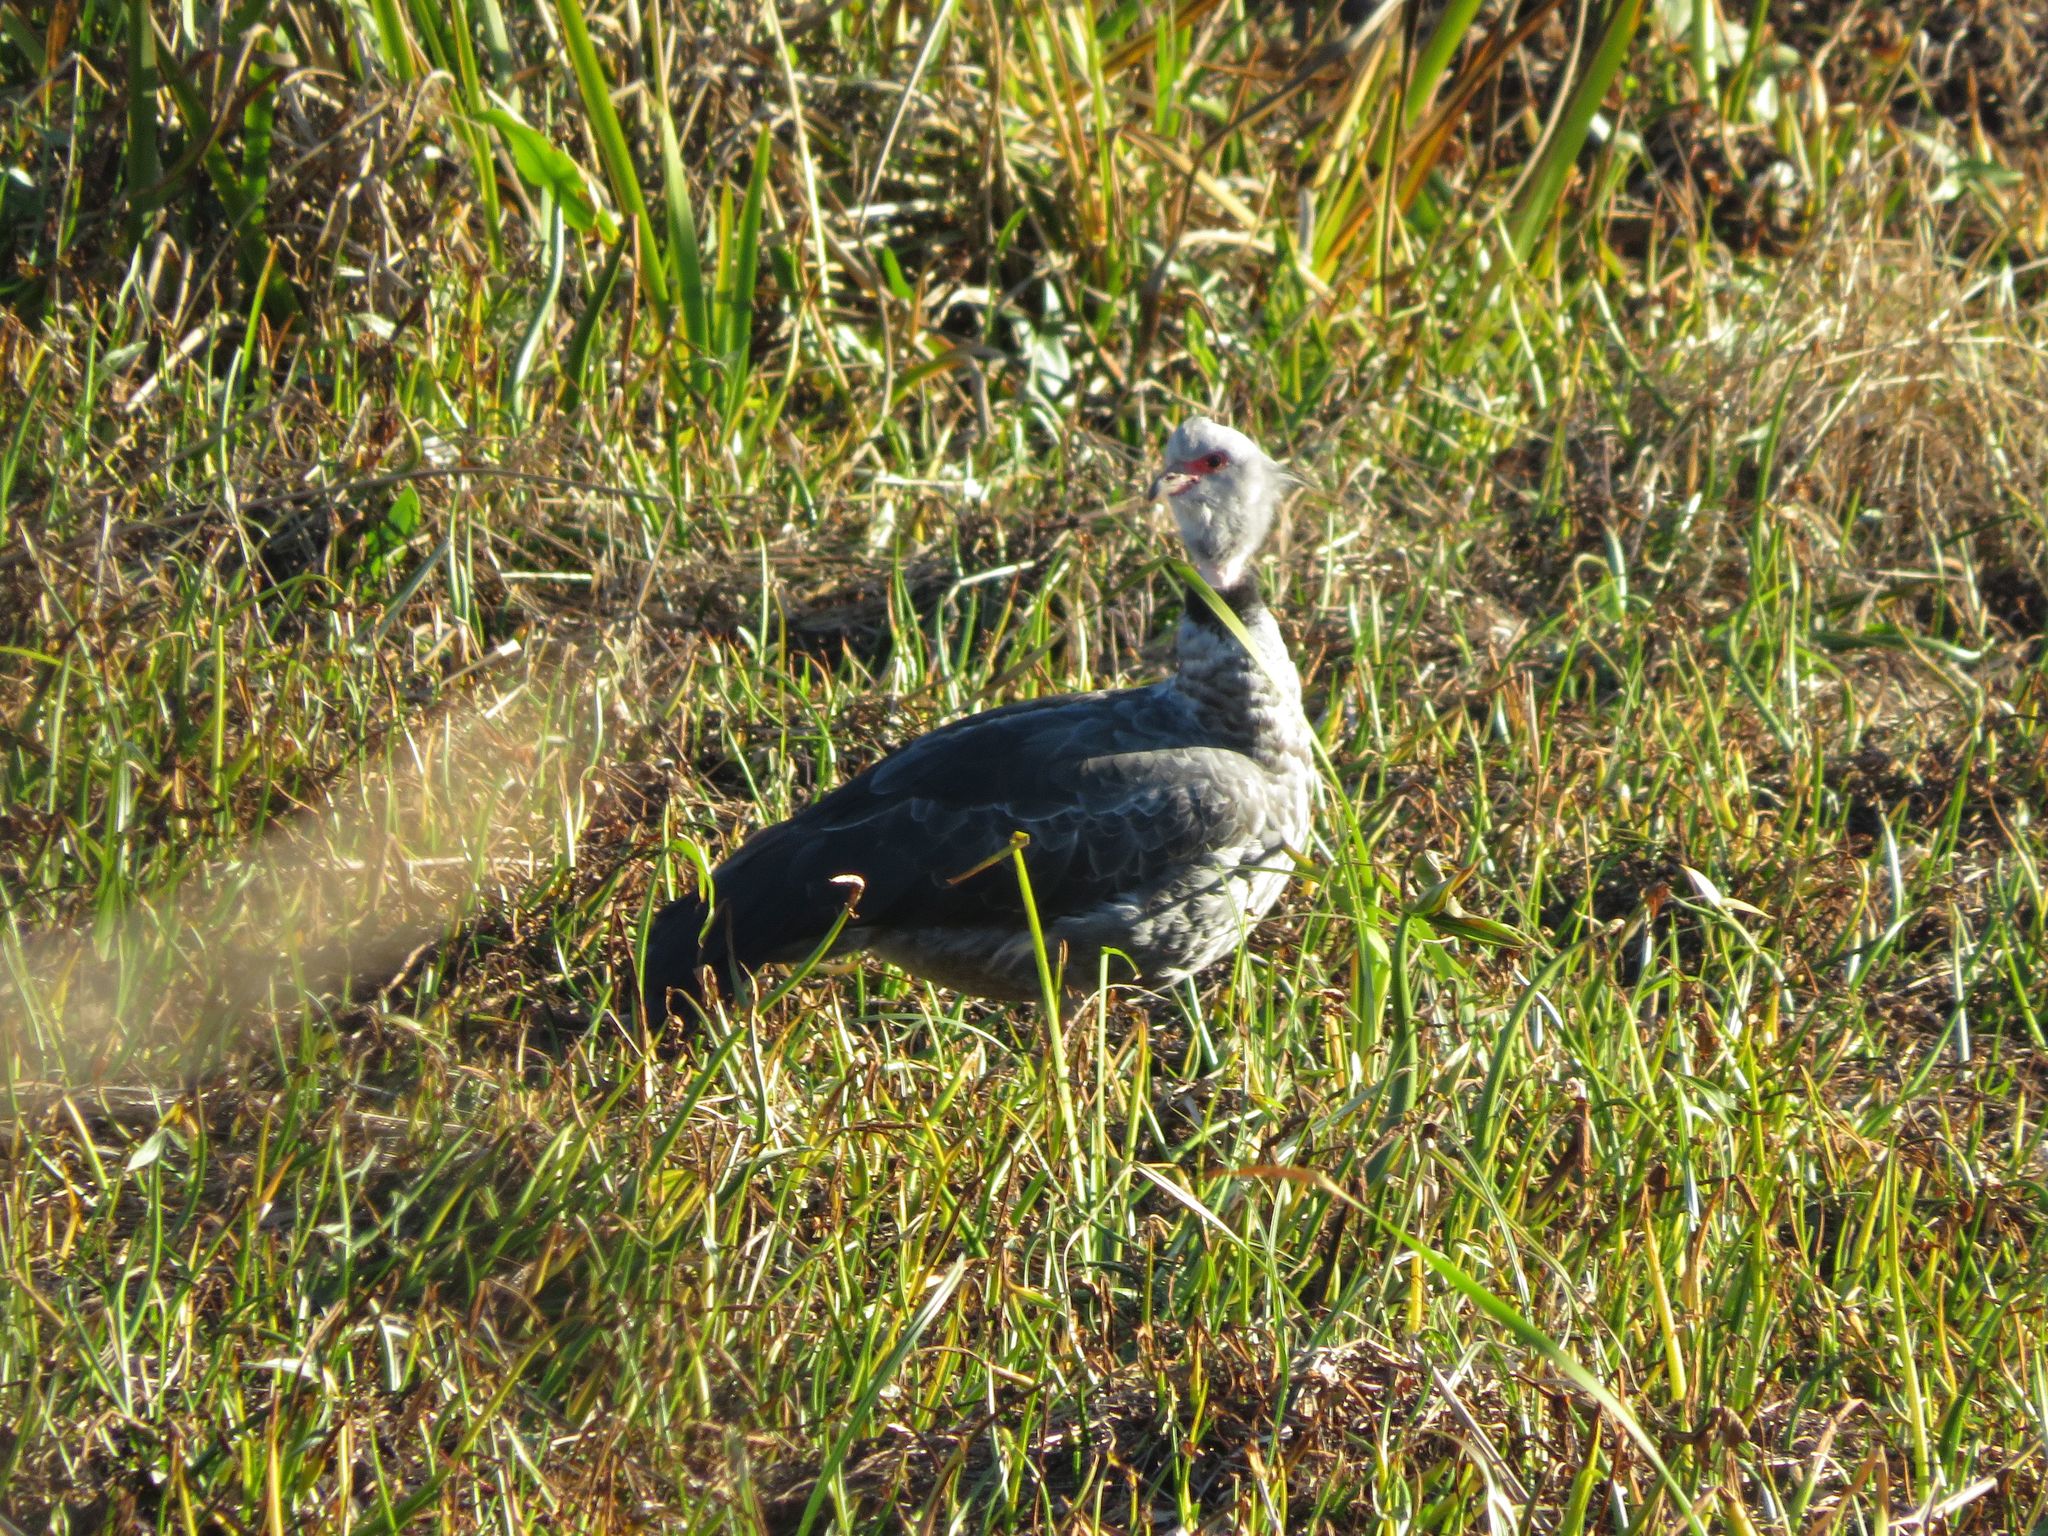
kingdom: Animalia
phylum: Chordata
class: Aves
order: Anseriformes
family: Anhimidae
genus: Chauna
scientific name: Chauna torquata
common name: Southern screamer
